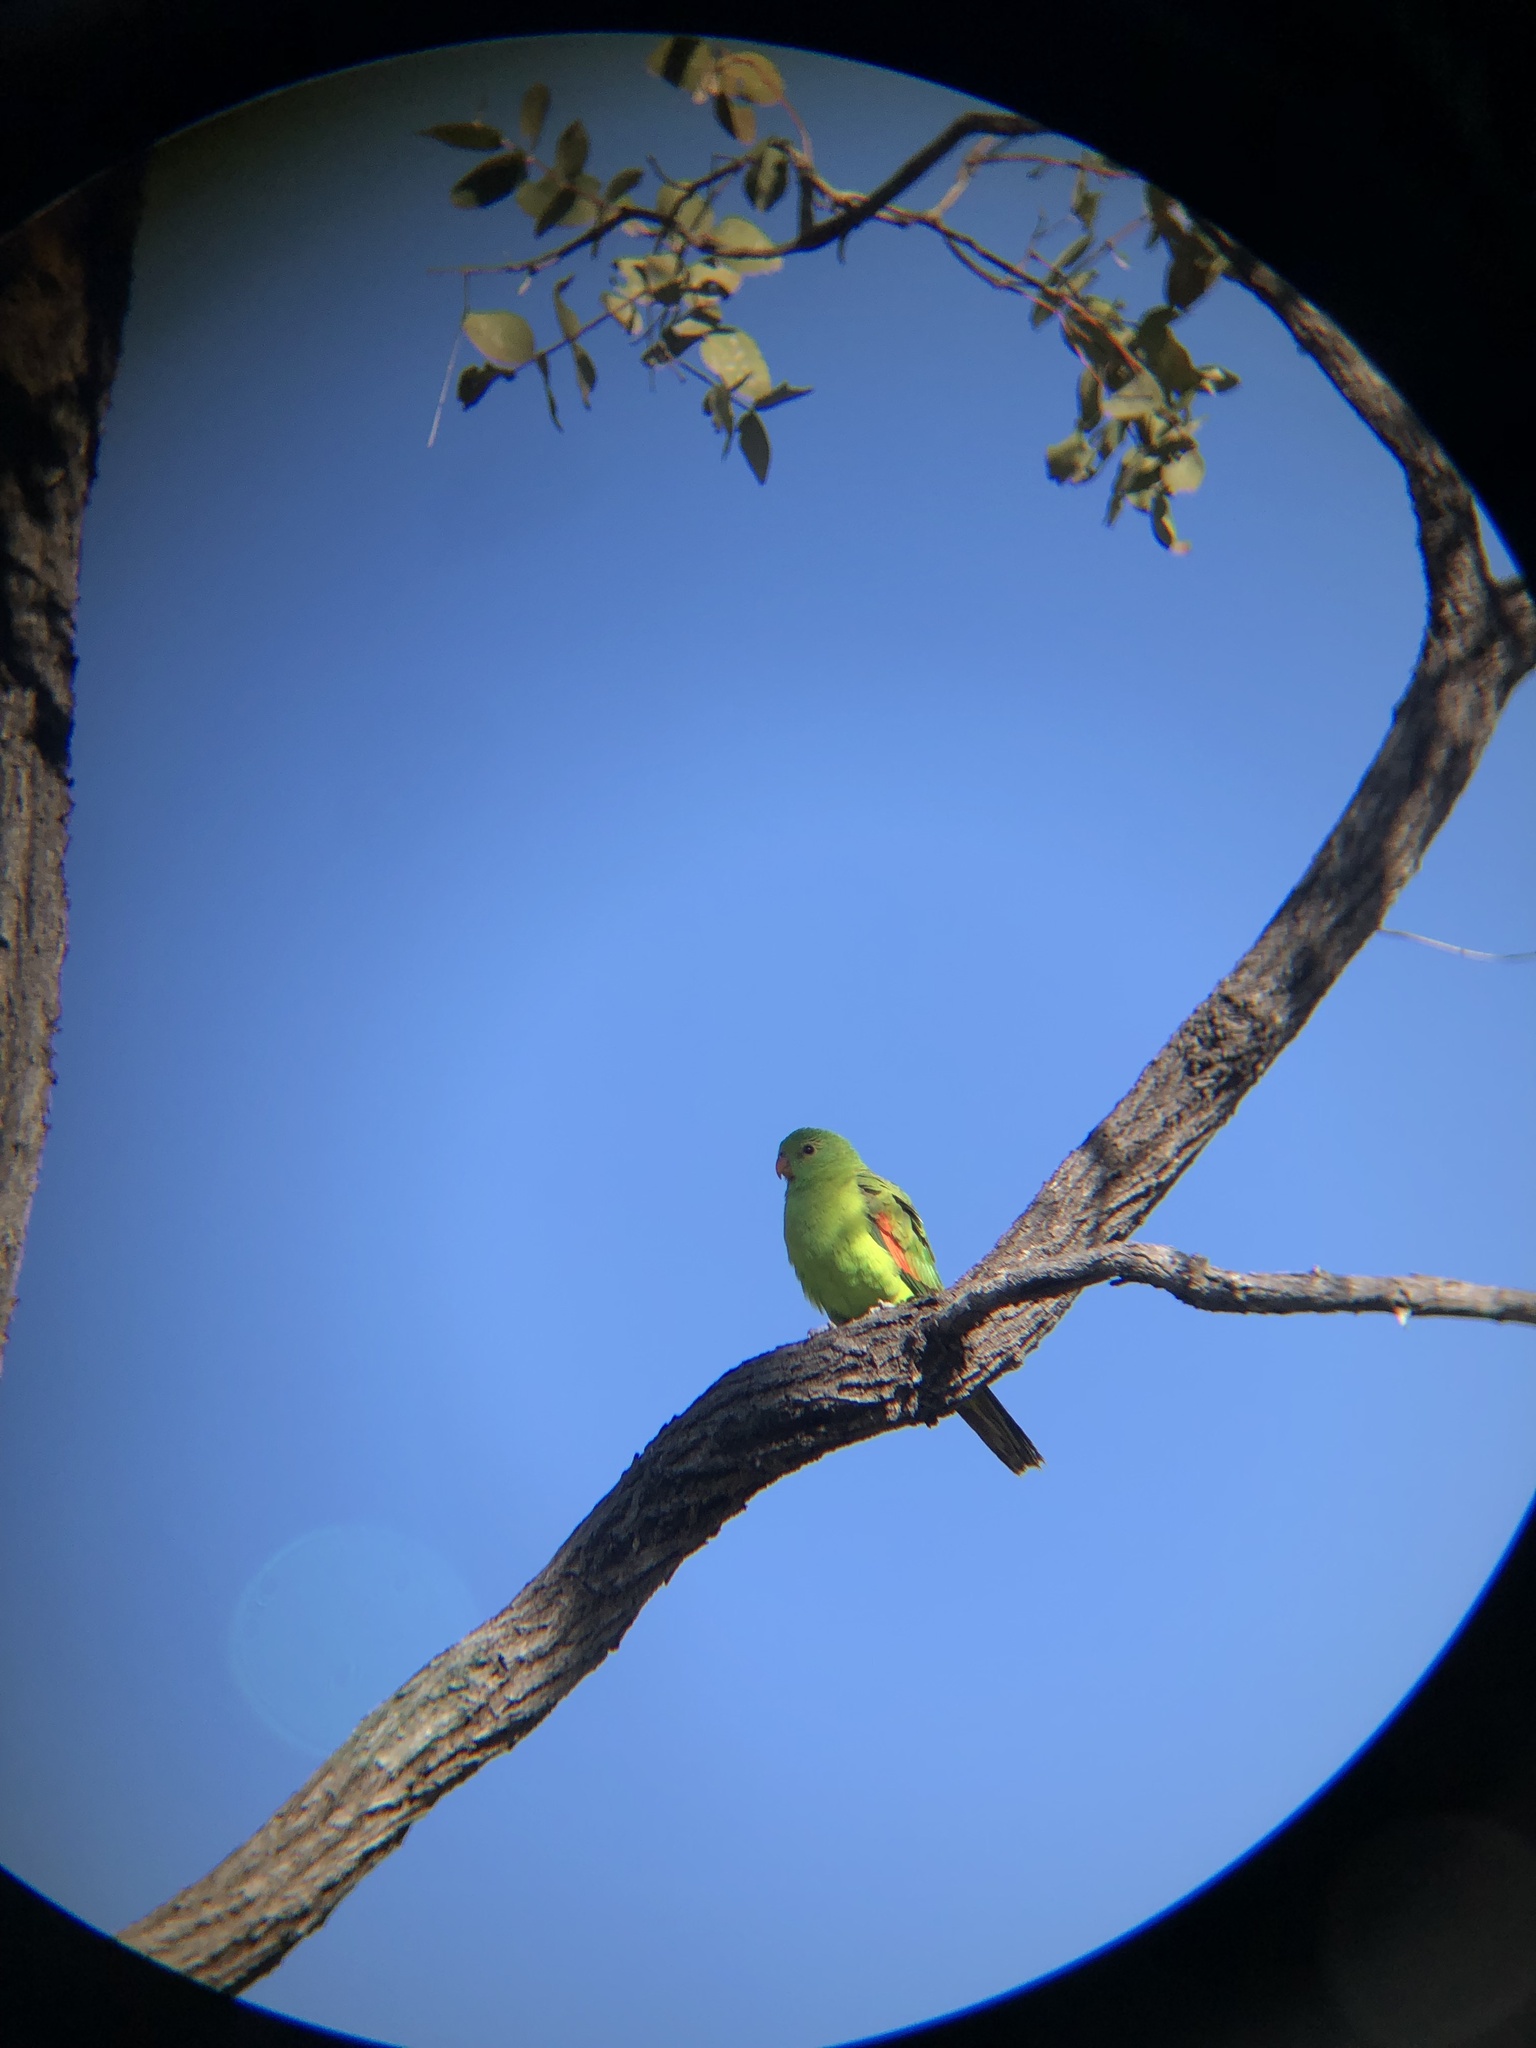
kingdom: Animalia
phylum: Chordata
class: Aves
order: Psittaciformes
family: Psittacidae
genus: Aprosmictus
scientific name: Aprosmictus erythropterus
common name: Red-winged parrot
